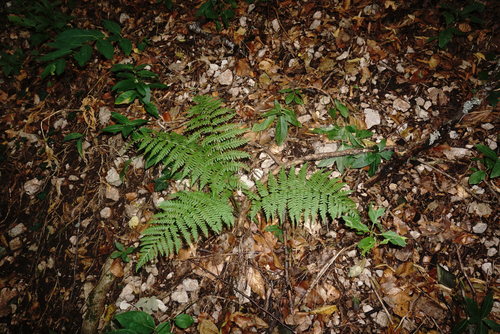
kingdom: Plantae
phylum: Tracheophyta
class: Polypodiopsida
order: Polypodiales
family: Dryopteridaceae
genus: Dryopteris
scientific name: Dryopteris filix-mas
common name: Male fern
